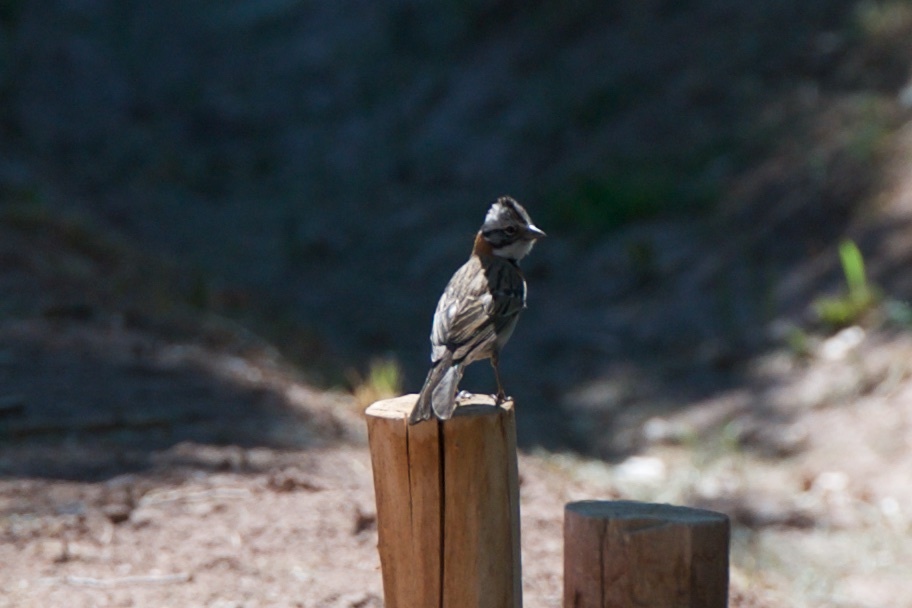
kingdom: Animalia
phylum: Chordata
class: Aves
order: Passeriformes
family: Passerellidae
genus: Zonotrichia
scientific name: Zonotrichia capensis
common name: Rufous-collared sparrow
